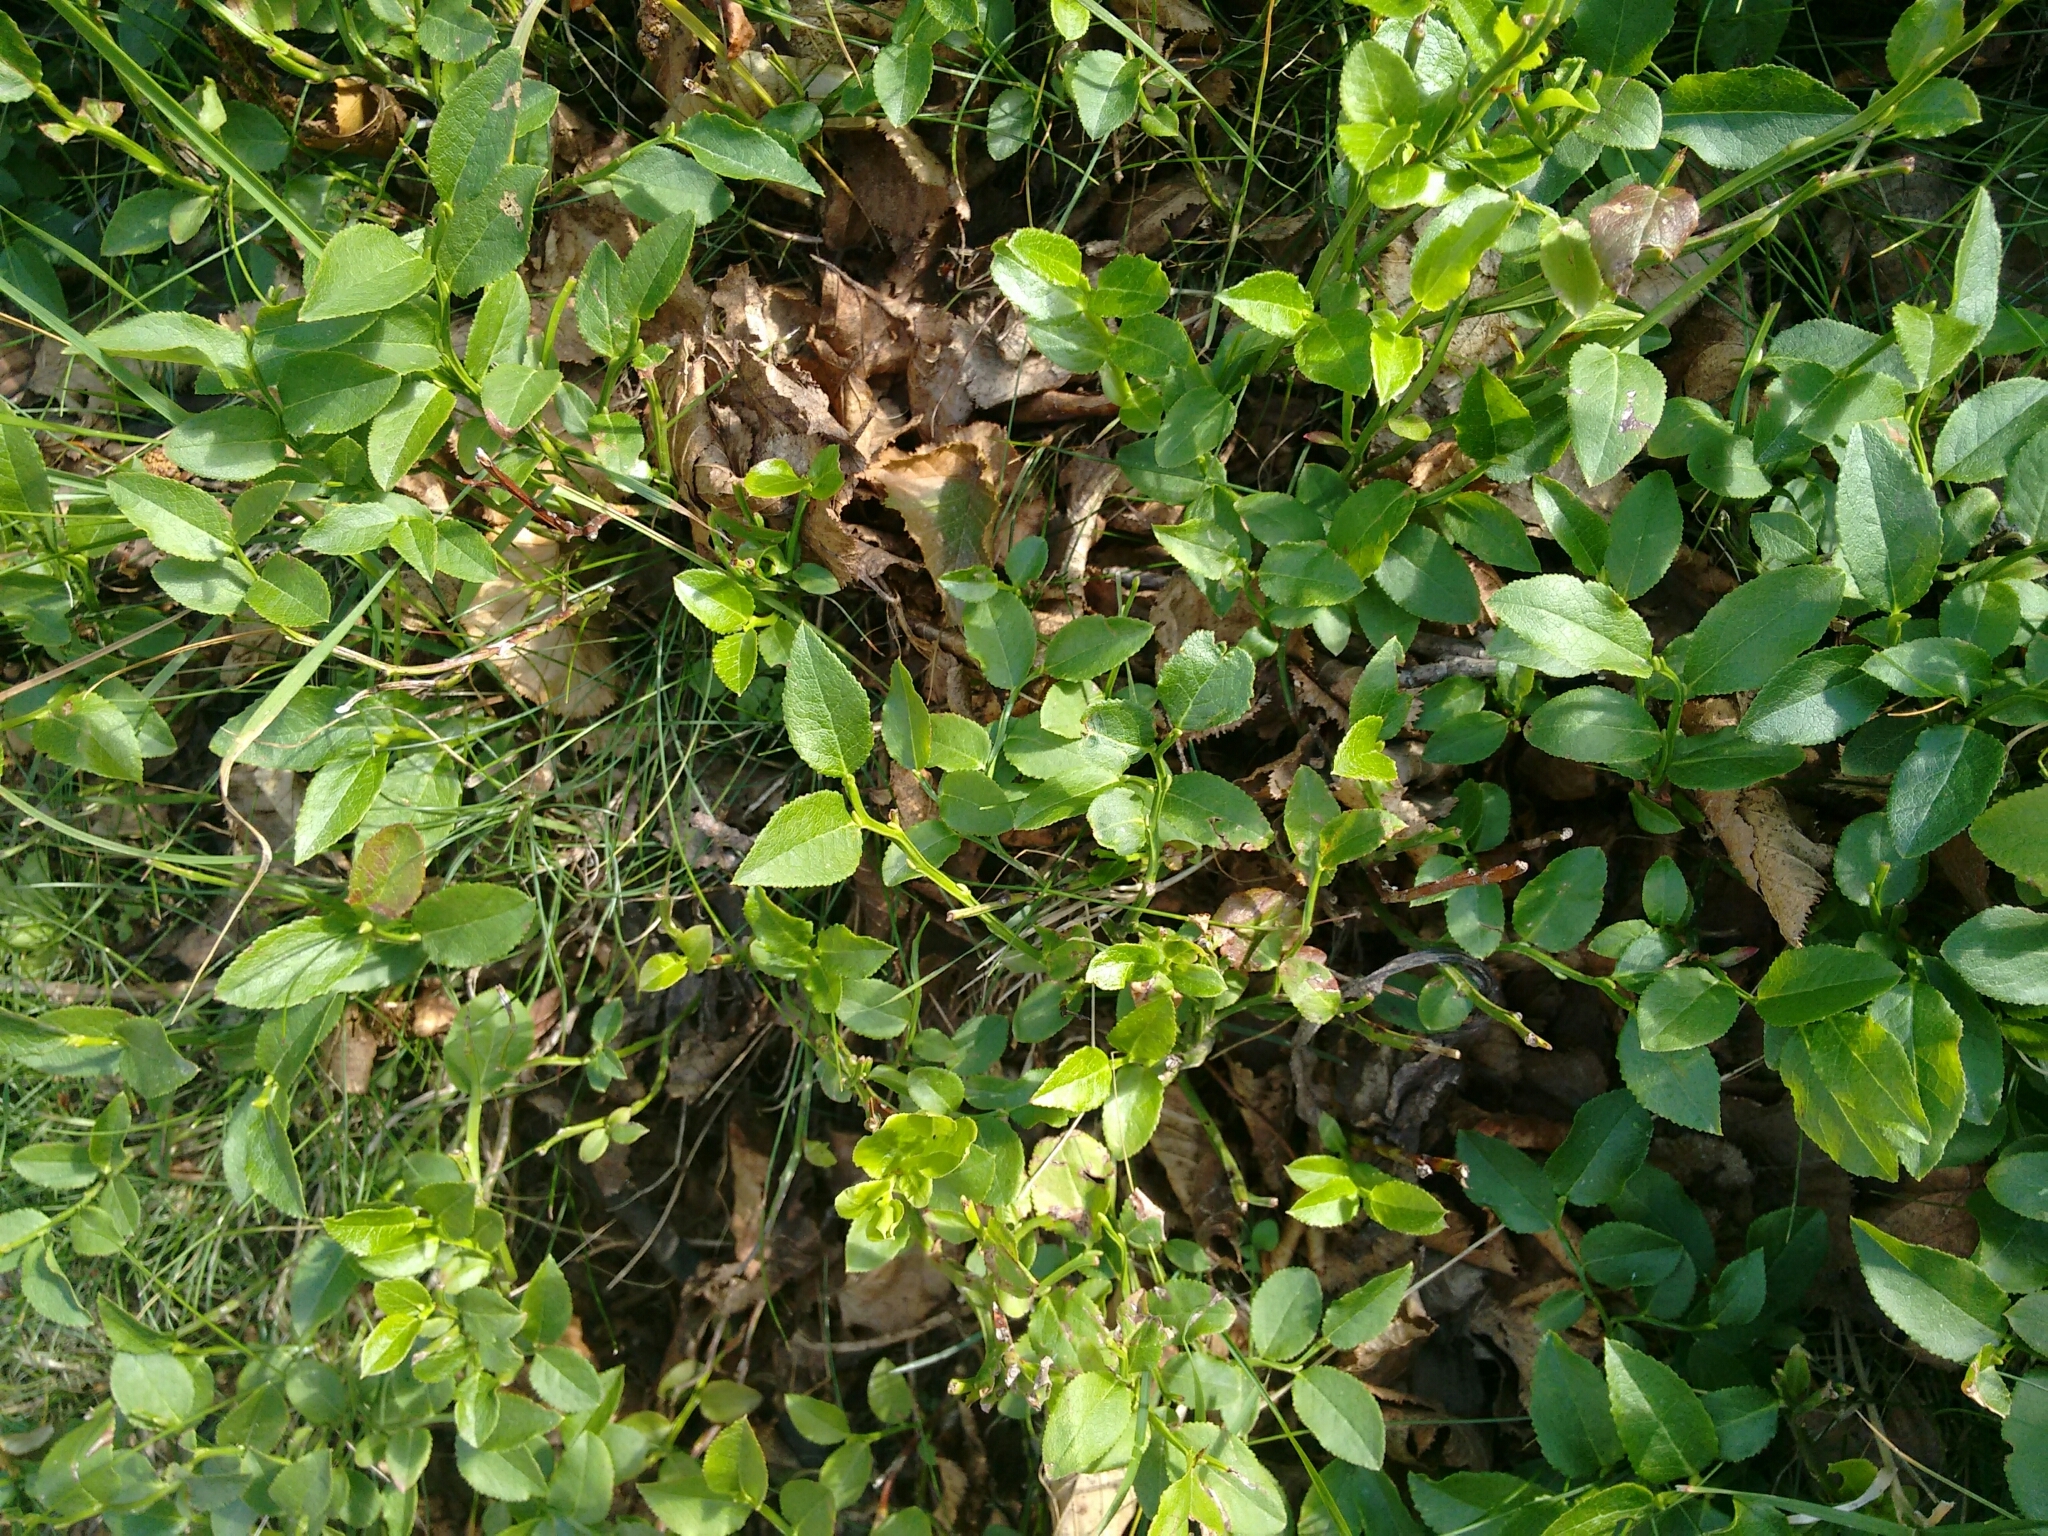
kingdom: Plantae
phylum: Tracheophyta
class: Magnoliopsida
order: Ericales
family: Ericaceae
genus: Vaccinium
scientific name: Vaccinium myrtillus
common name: Bilberry
